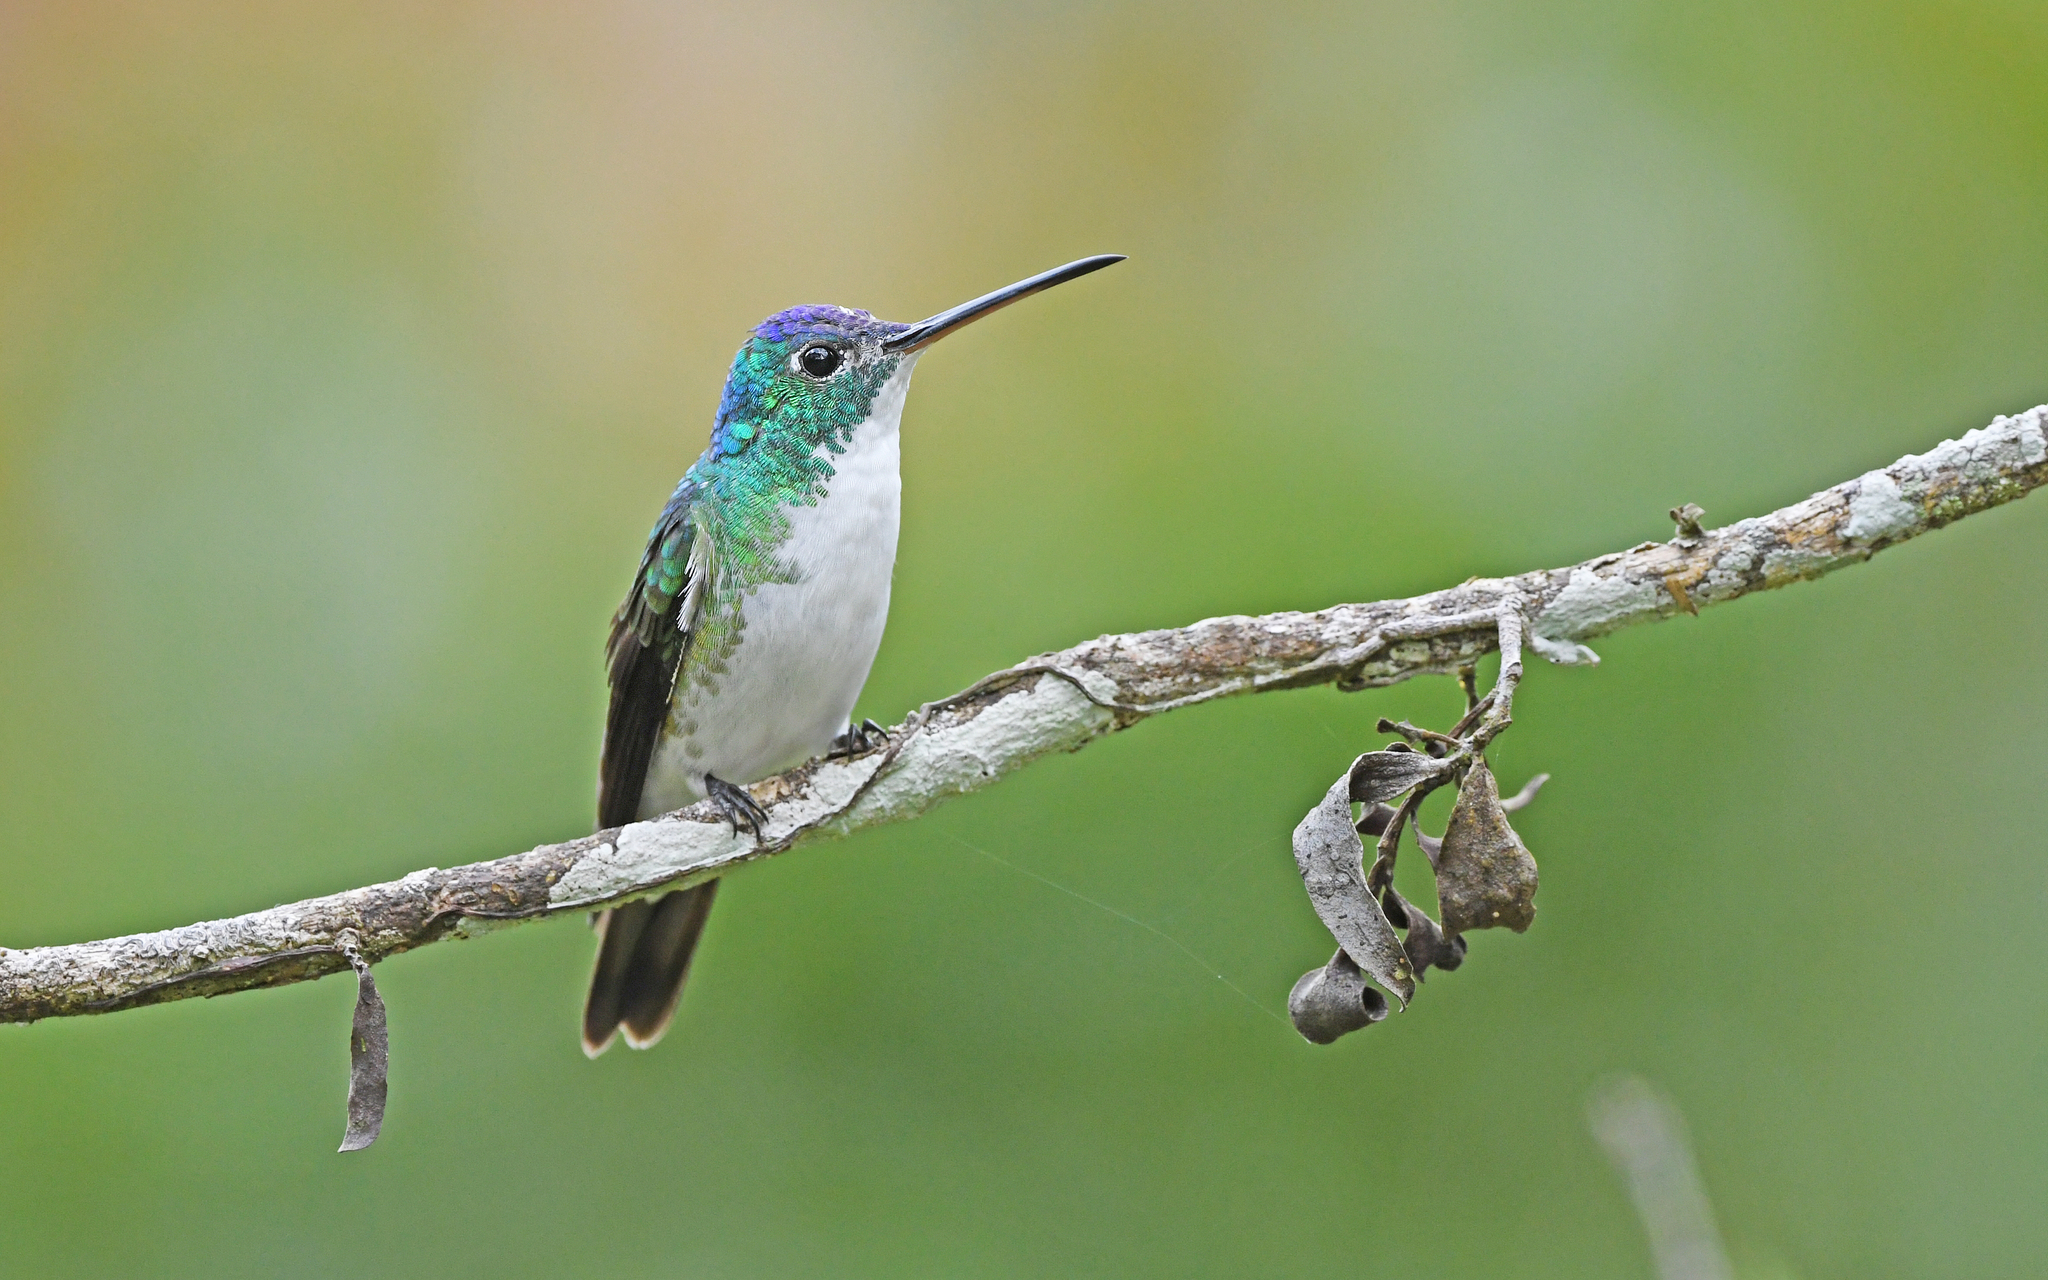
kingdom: Animalia
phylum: Chordata
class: Aves
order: Apodiformes
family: Trochilidae
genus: Uranomitra
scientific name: Uranomitra franciae
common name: Andean emerald
